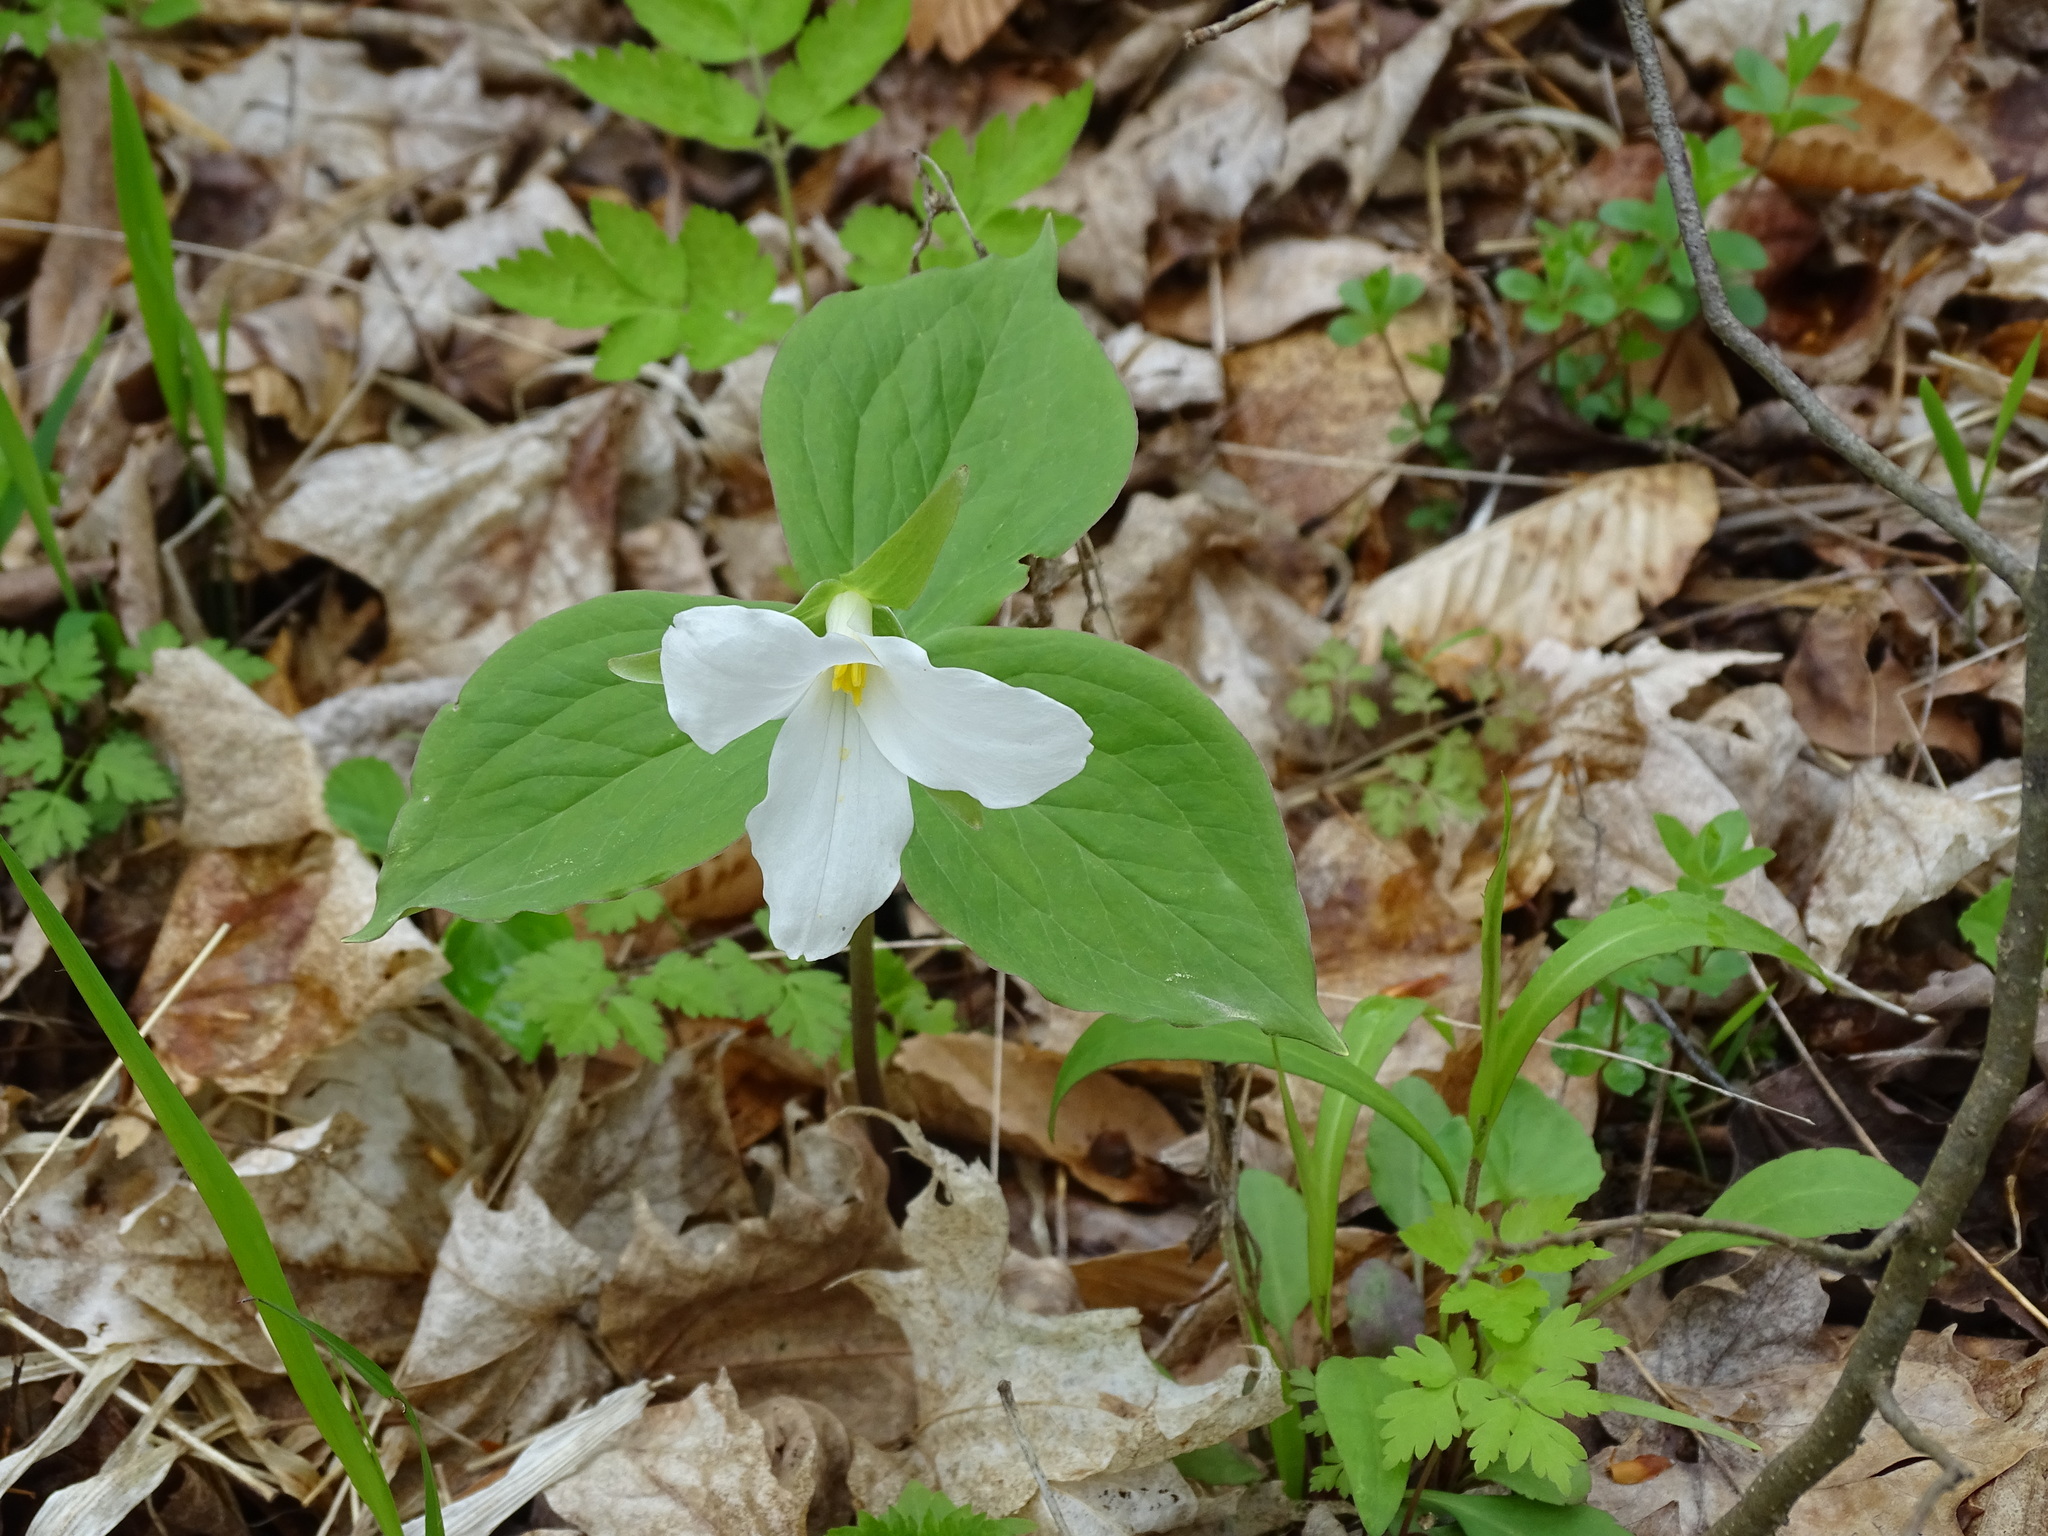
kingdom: Plantae
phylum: Tracheophyta
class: Liliopsida
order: Liliales
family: Melanthiaceae
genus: Trillium
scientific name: Trillium grandiflorum
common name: Great white trillium
